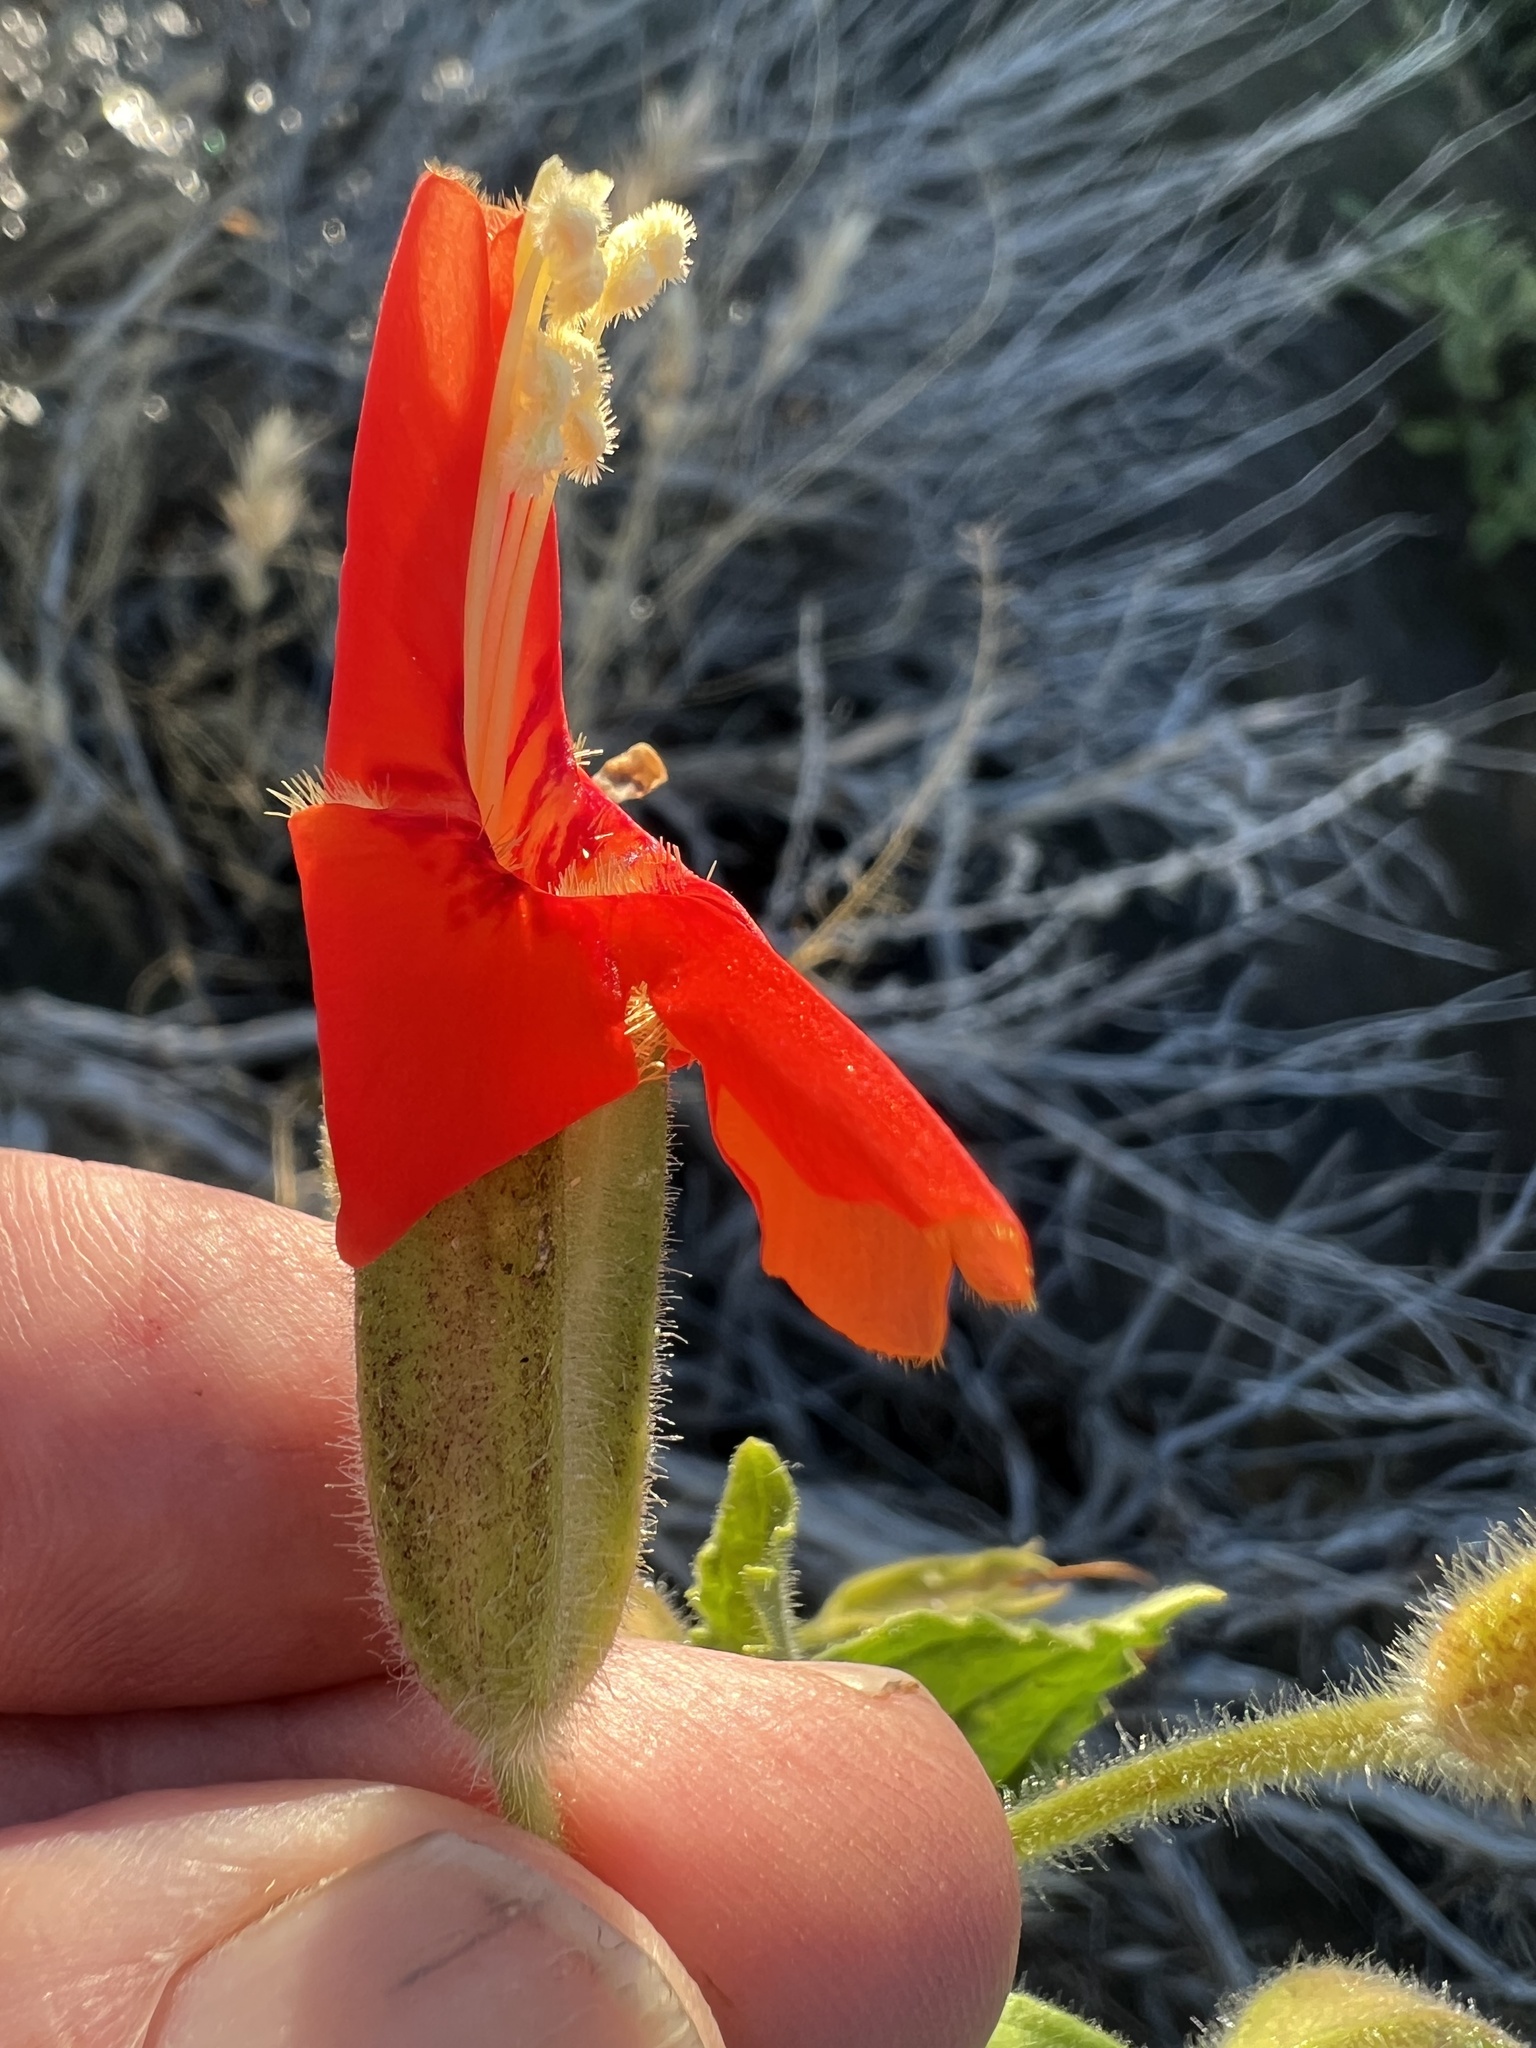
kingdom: Plantae
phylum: Tracheophyta
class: Magnoliopsida
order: Lamiales
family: Phrymaceae
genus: Erythranthe
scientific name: Erythranthe cardinalis
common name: Scarlet monkey-flower
